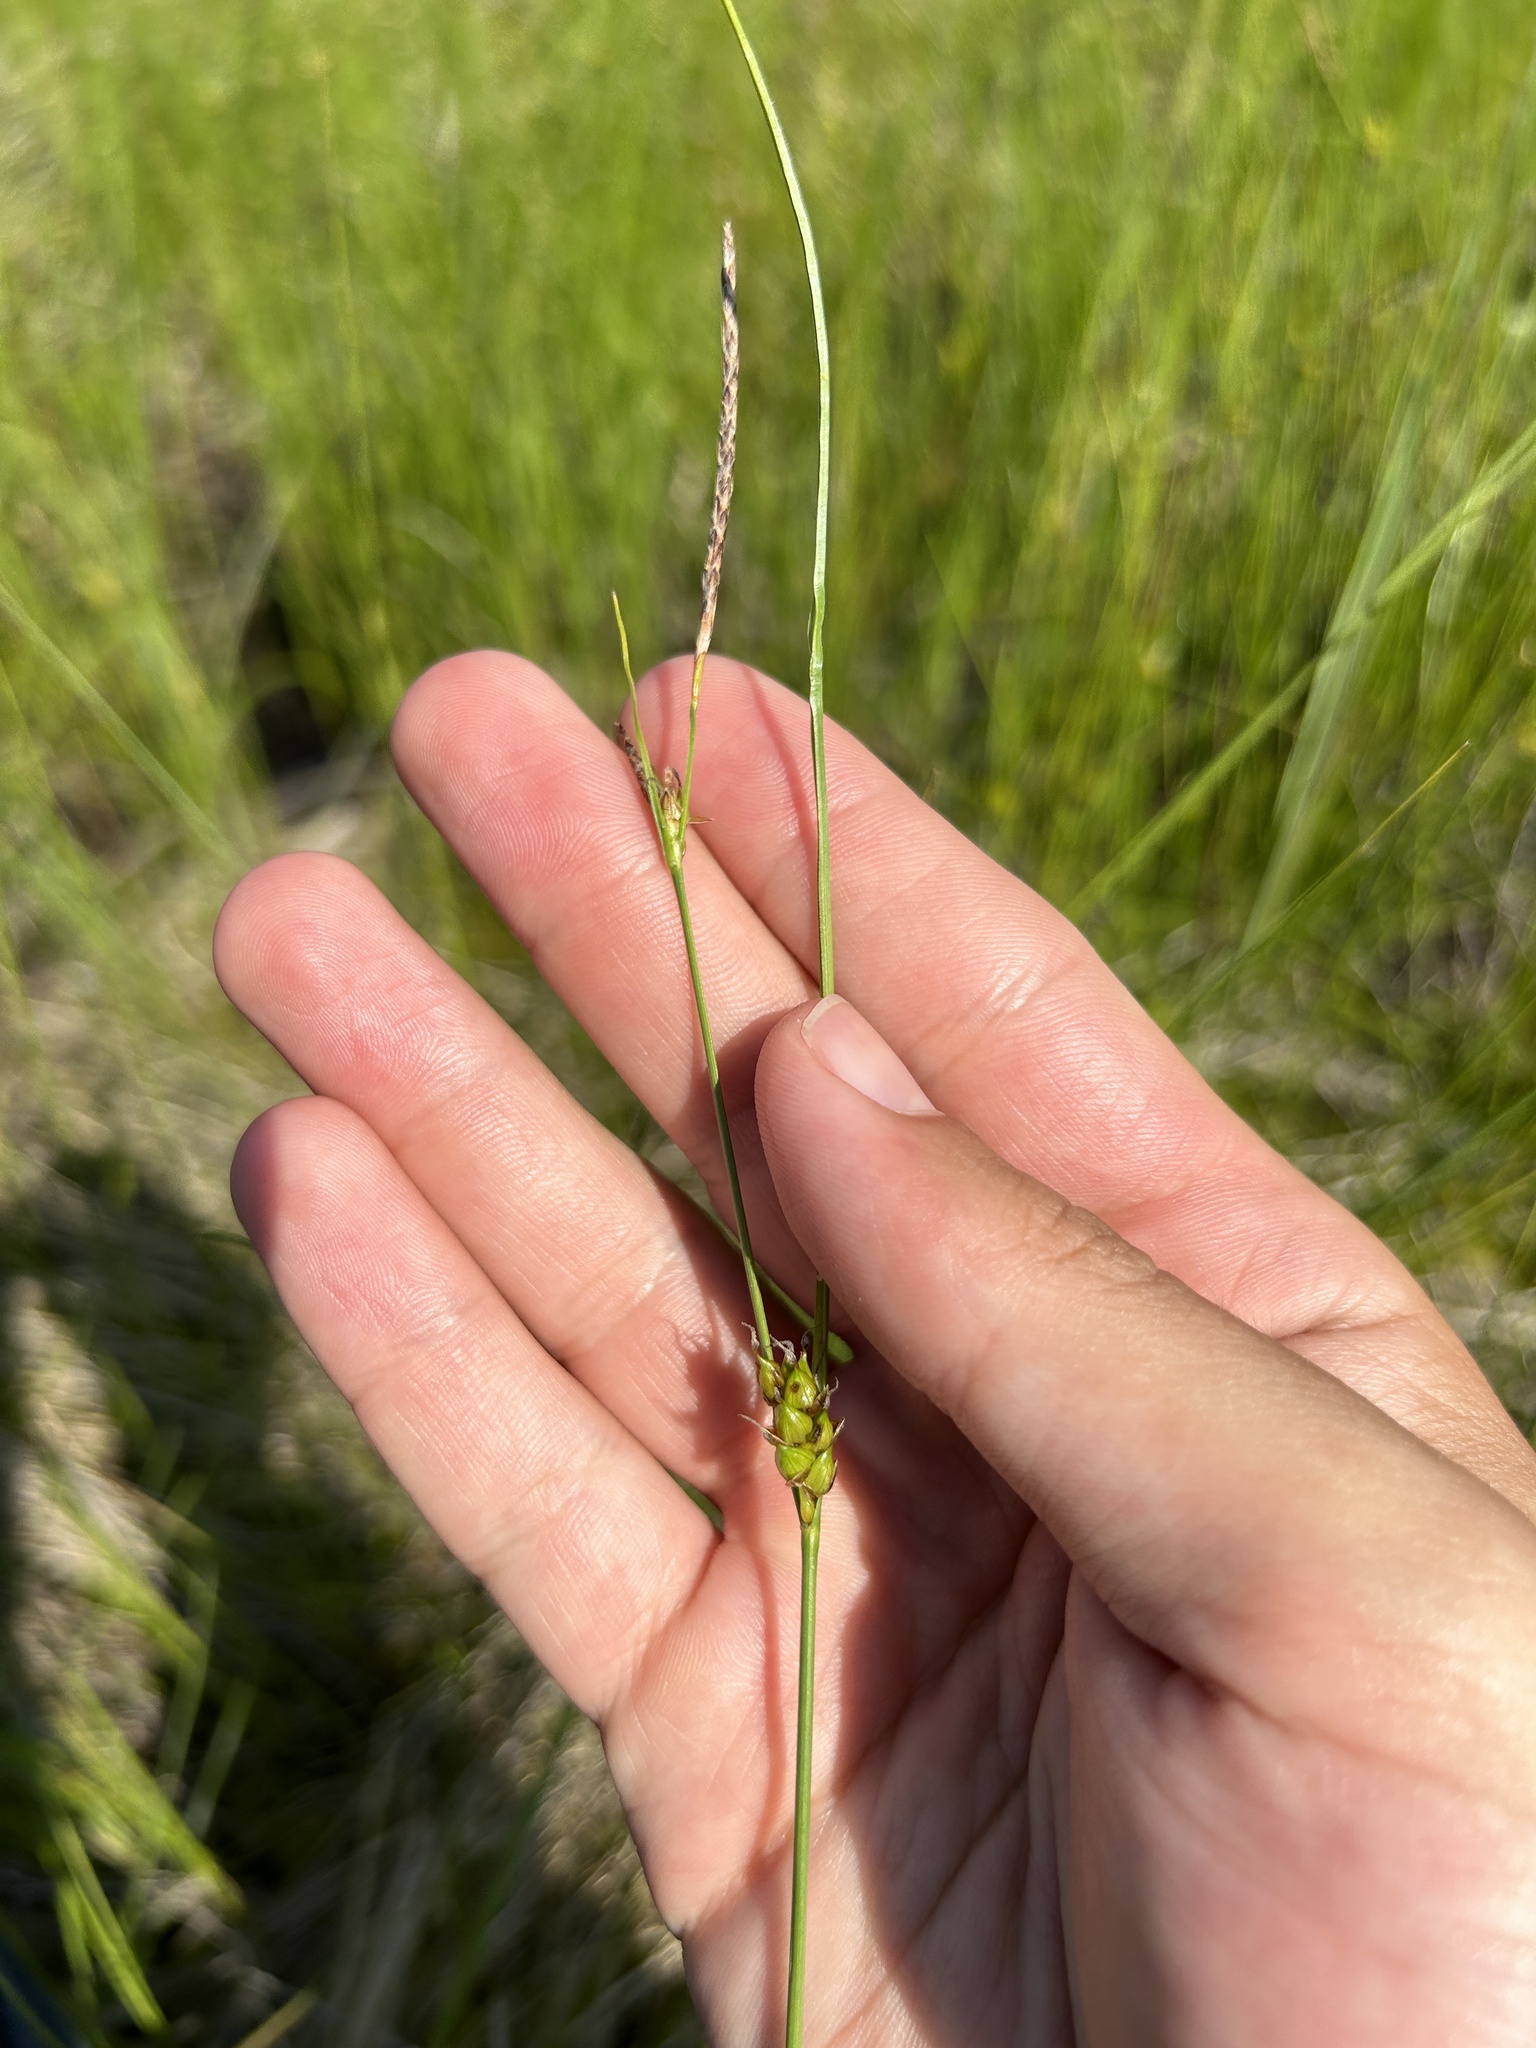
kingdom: Plantae
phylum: Tracheophyta
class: Liliopsida
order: Poales
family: Cyperaceae
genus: Carex
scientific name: Carex oligosperma
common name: Few-seed sedge
